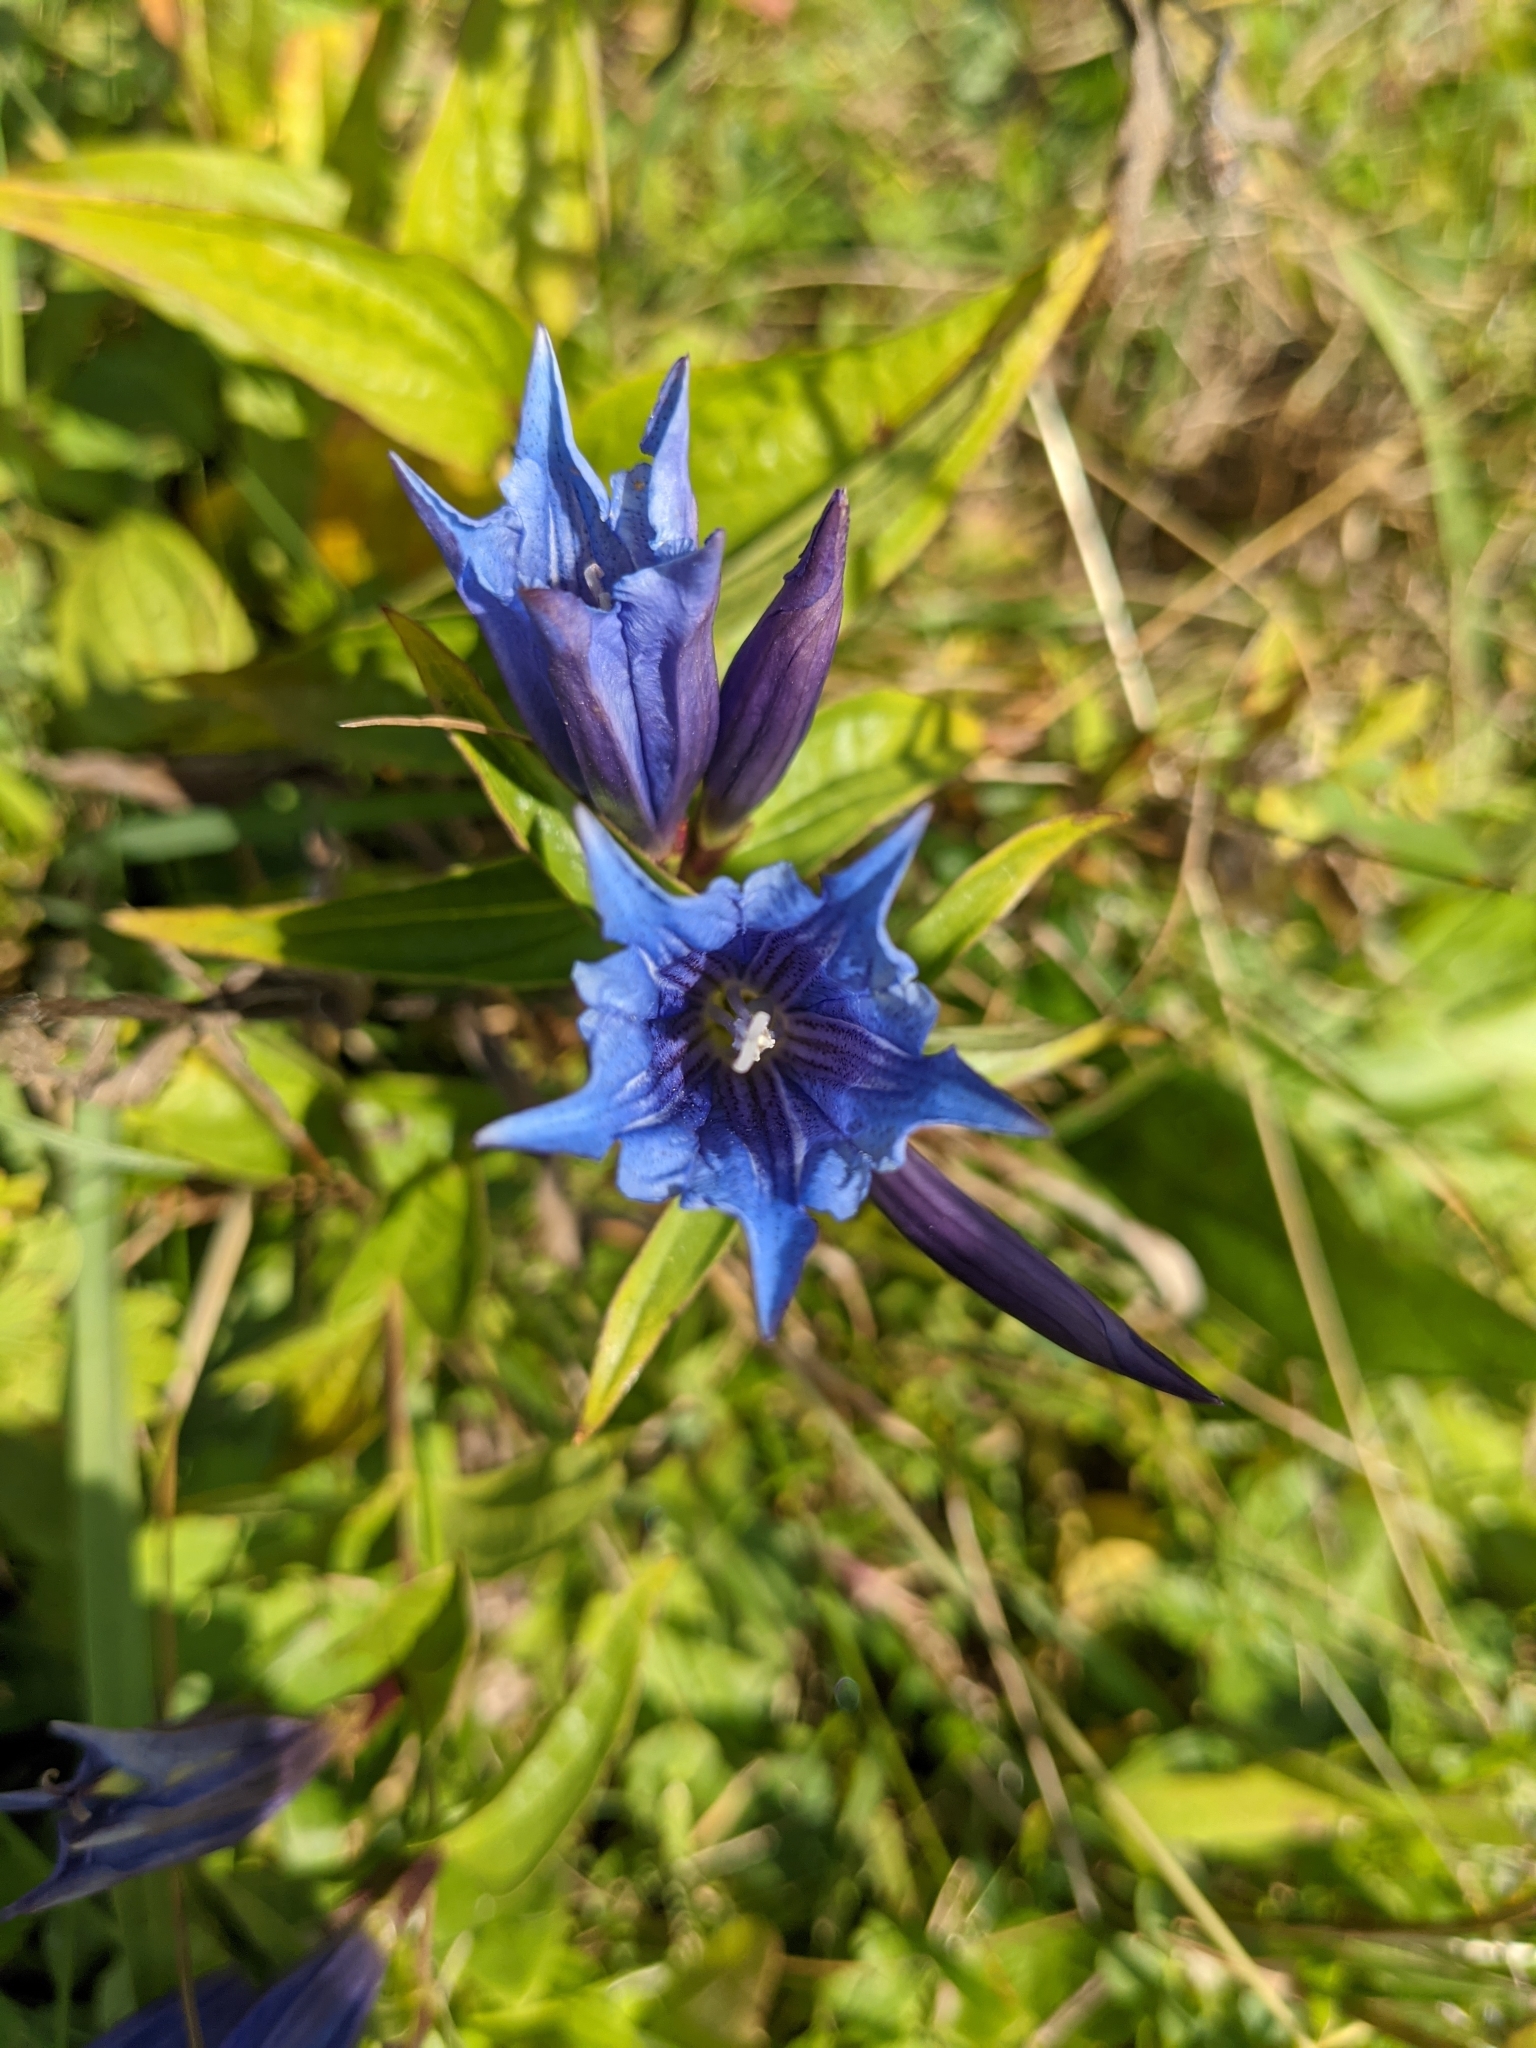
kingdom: Plantae
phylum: Tracheophyta
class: Magnoliopsida
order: Gentianales
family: Gentianaceae
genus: Gentiana
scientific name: Gentiana asclepiadea
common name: Willow gentian
